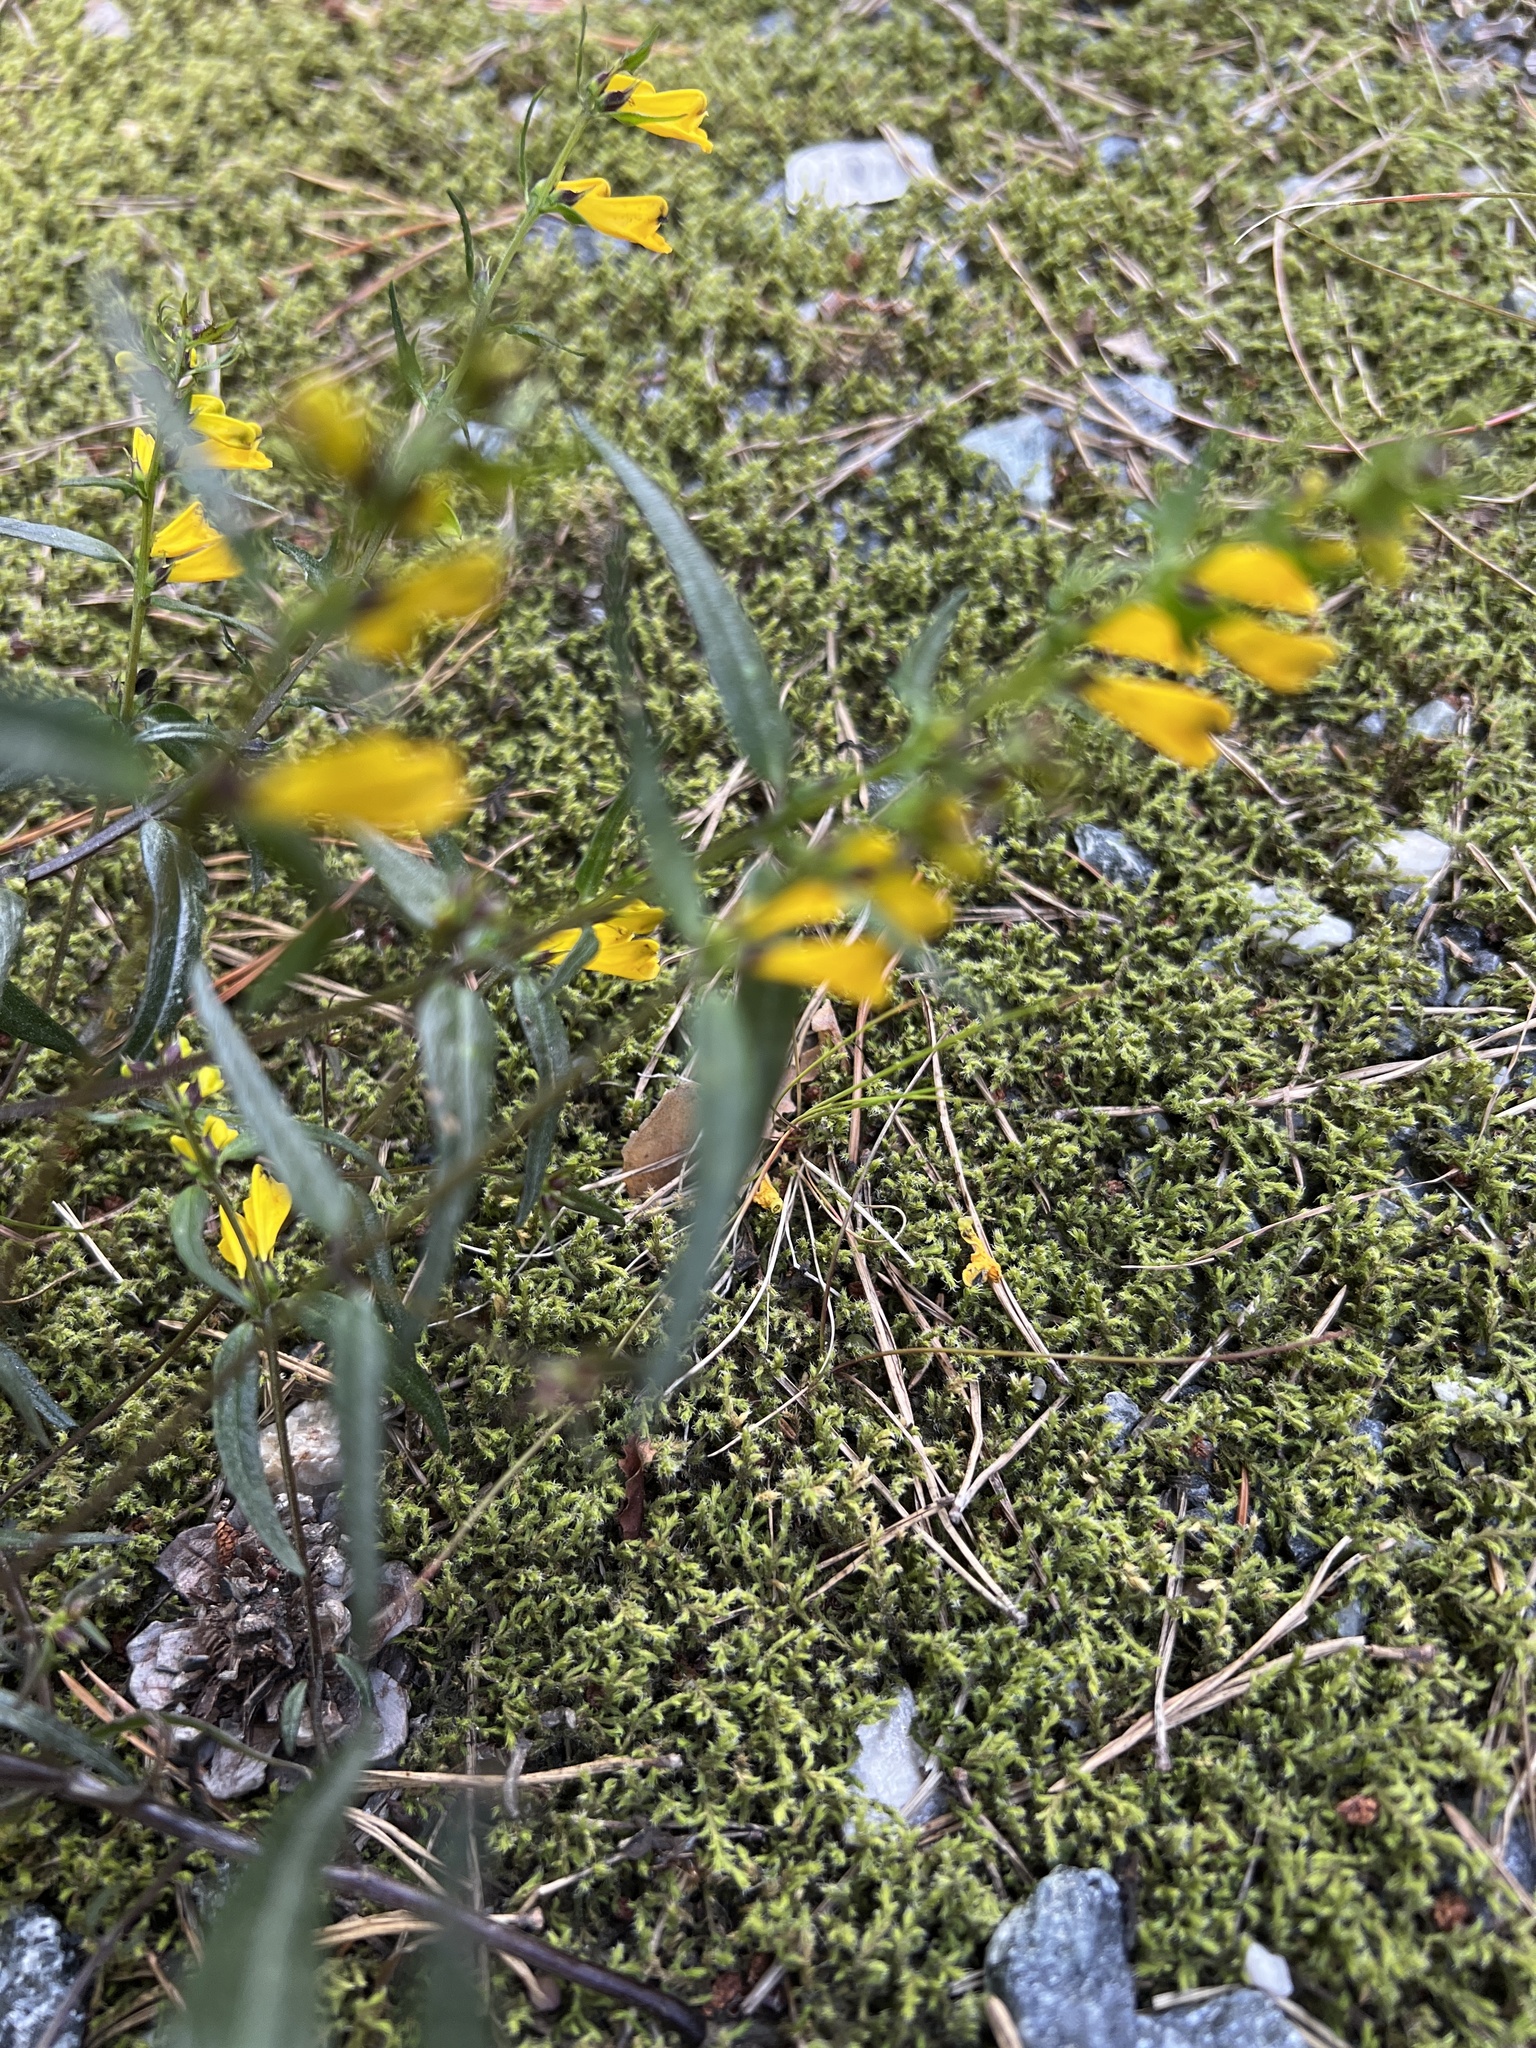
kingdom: Plantae
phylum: Tracheophyta
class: Magnoliopsida
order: Lamiales
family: Orobanchaceae
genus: Melampyrum
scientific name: Melampyrum pratense
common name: Common cow-wheat
